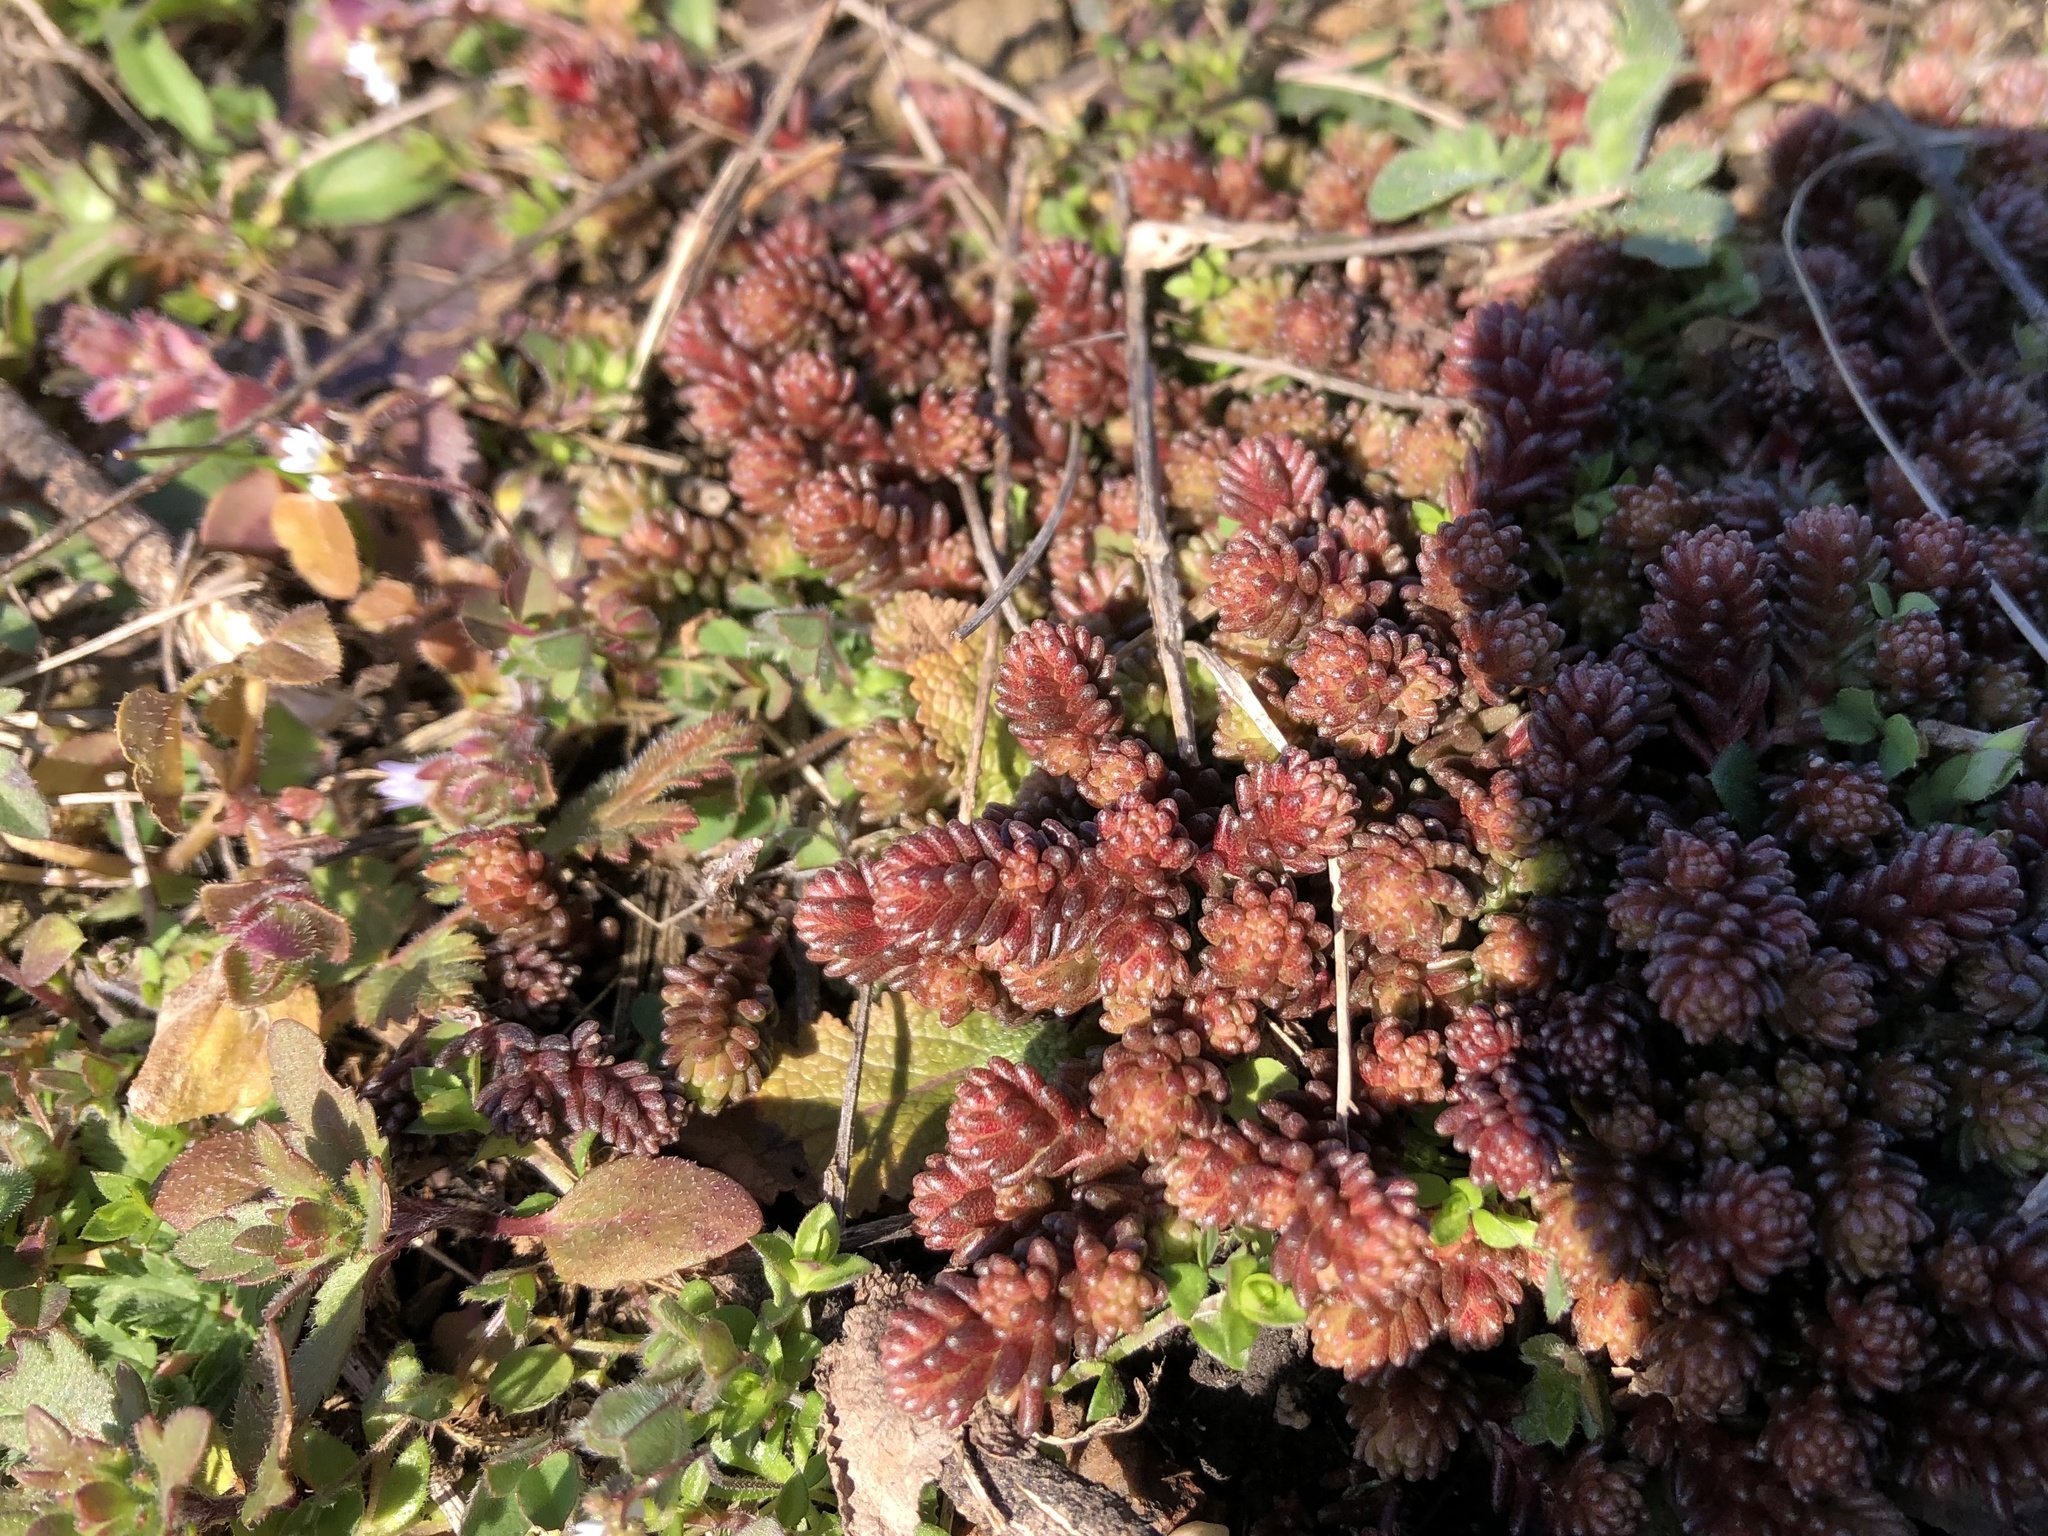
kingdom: Plantae
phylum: Tracheophyta
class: Magnoliopsida
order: Saxifragales
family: Crassulaceae
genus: Sedum
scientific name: Sedum sexangulare
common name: Tasteless stonecrop
